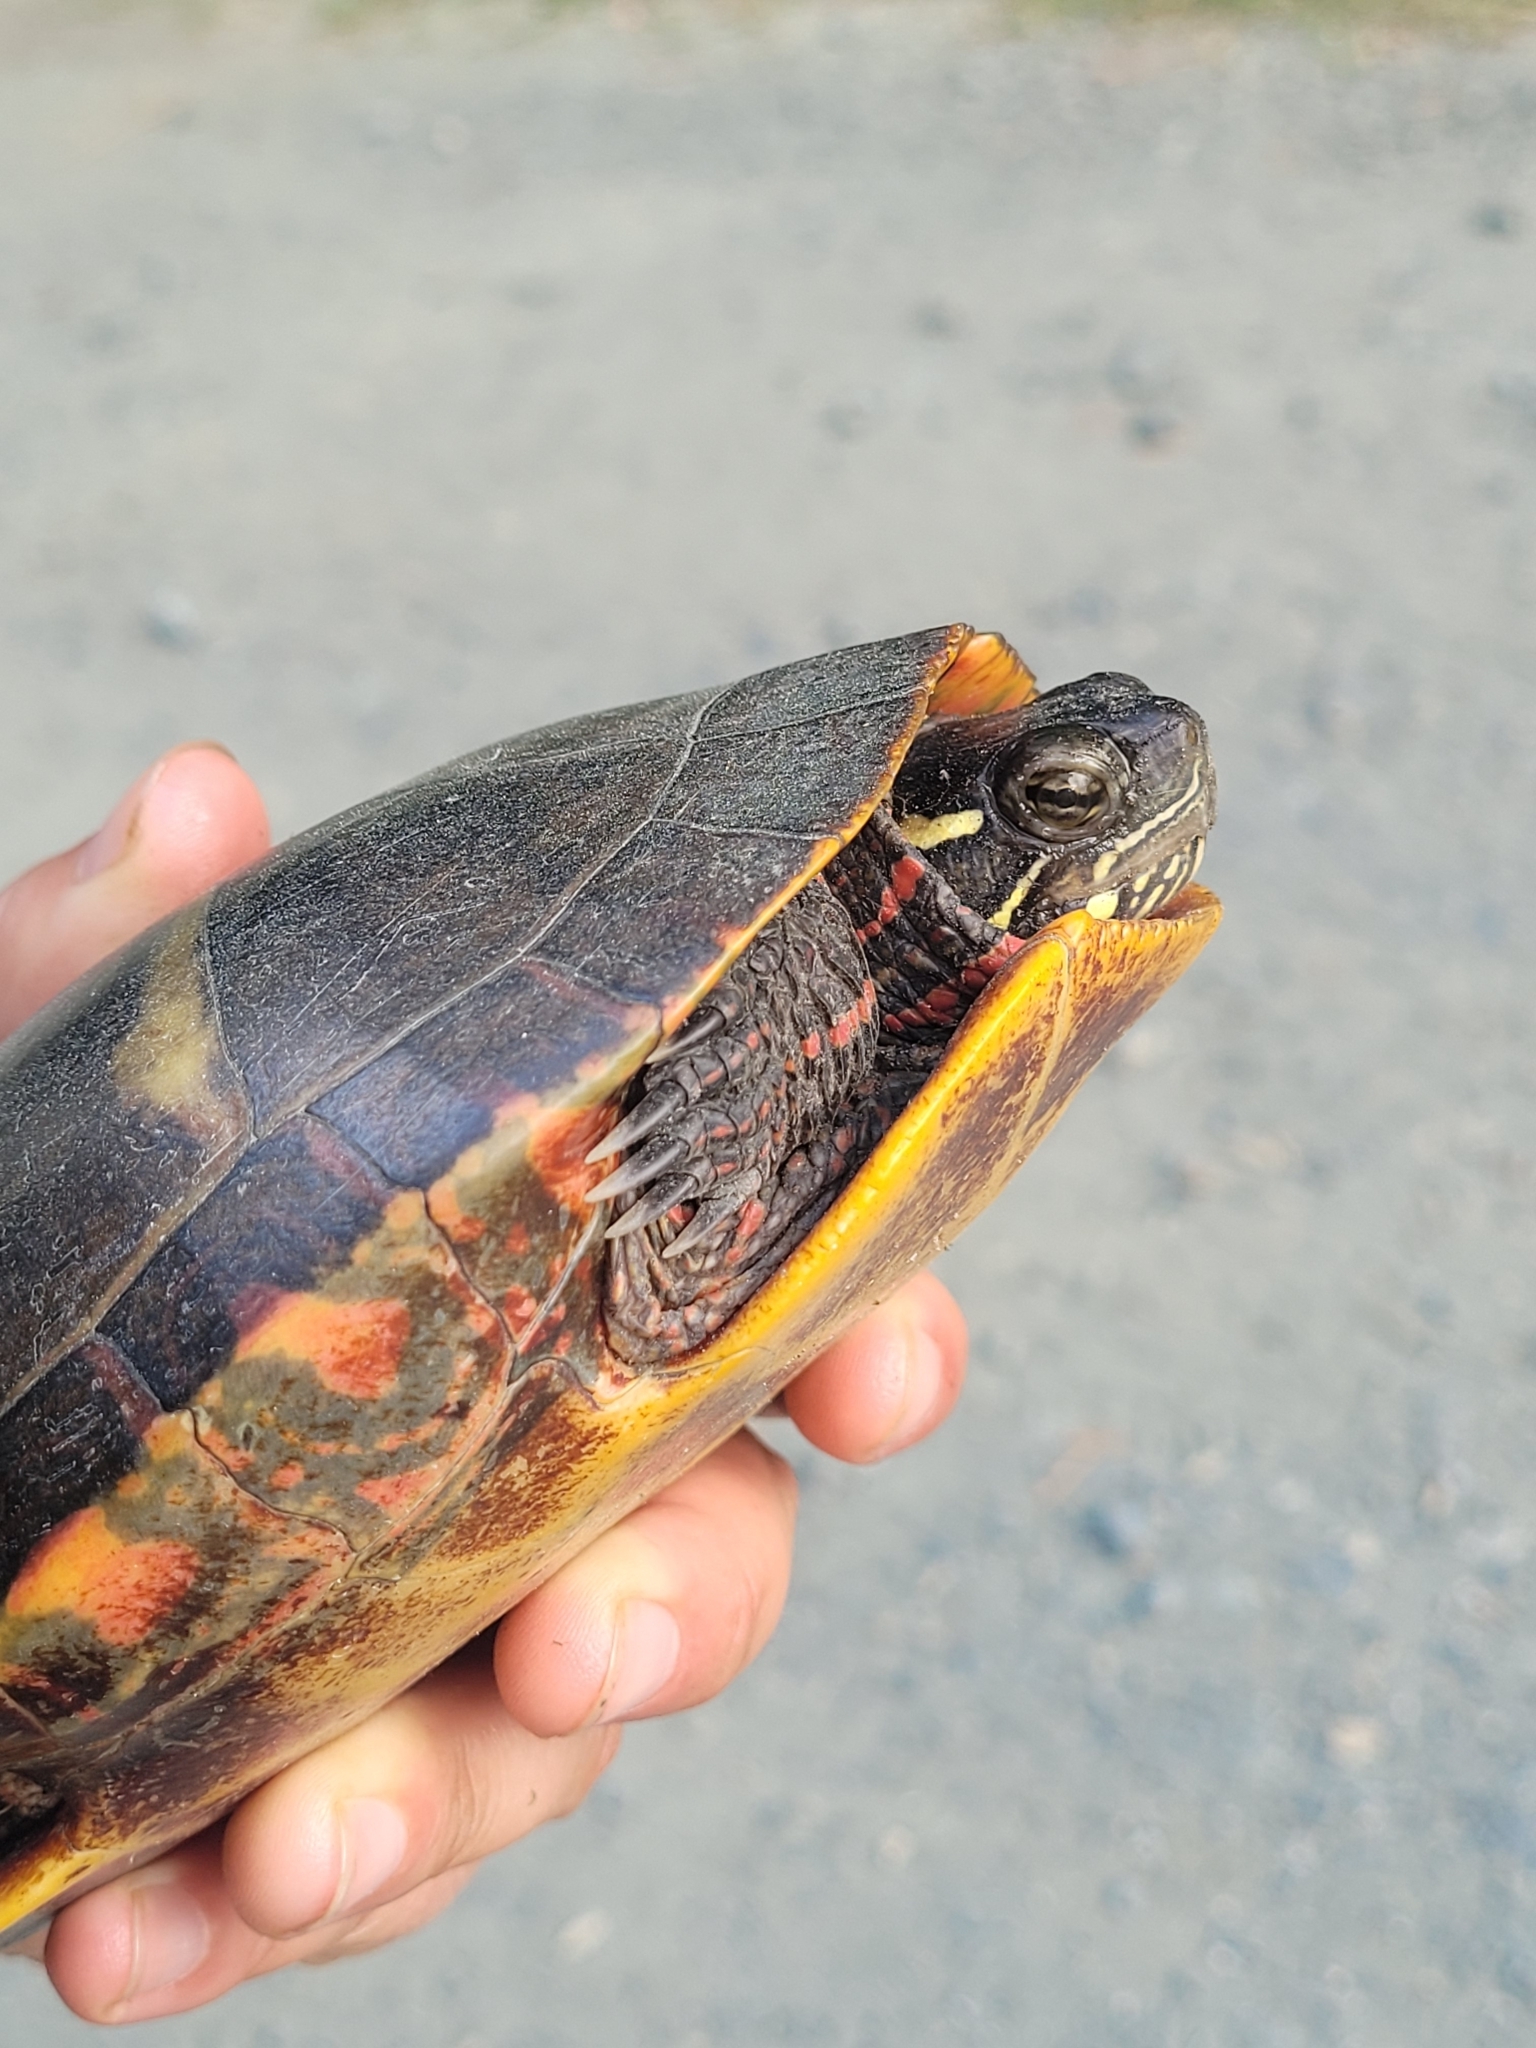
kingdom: Animalia
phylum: Chordata
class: Testudines
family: Emydidae
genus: Chrysemys
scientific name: Chrysemys picta
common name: Painted turtle
